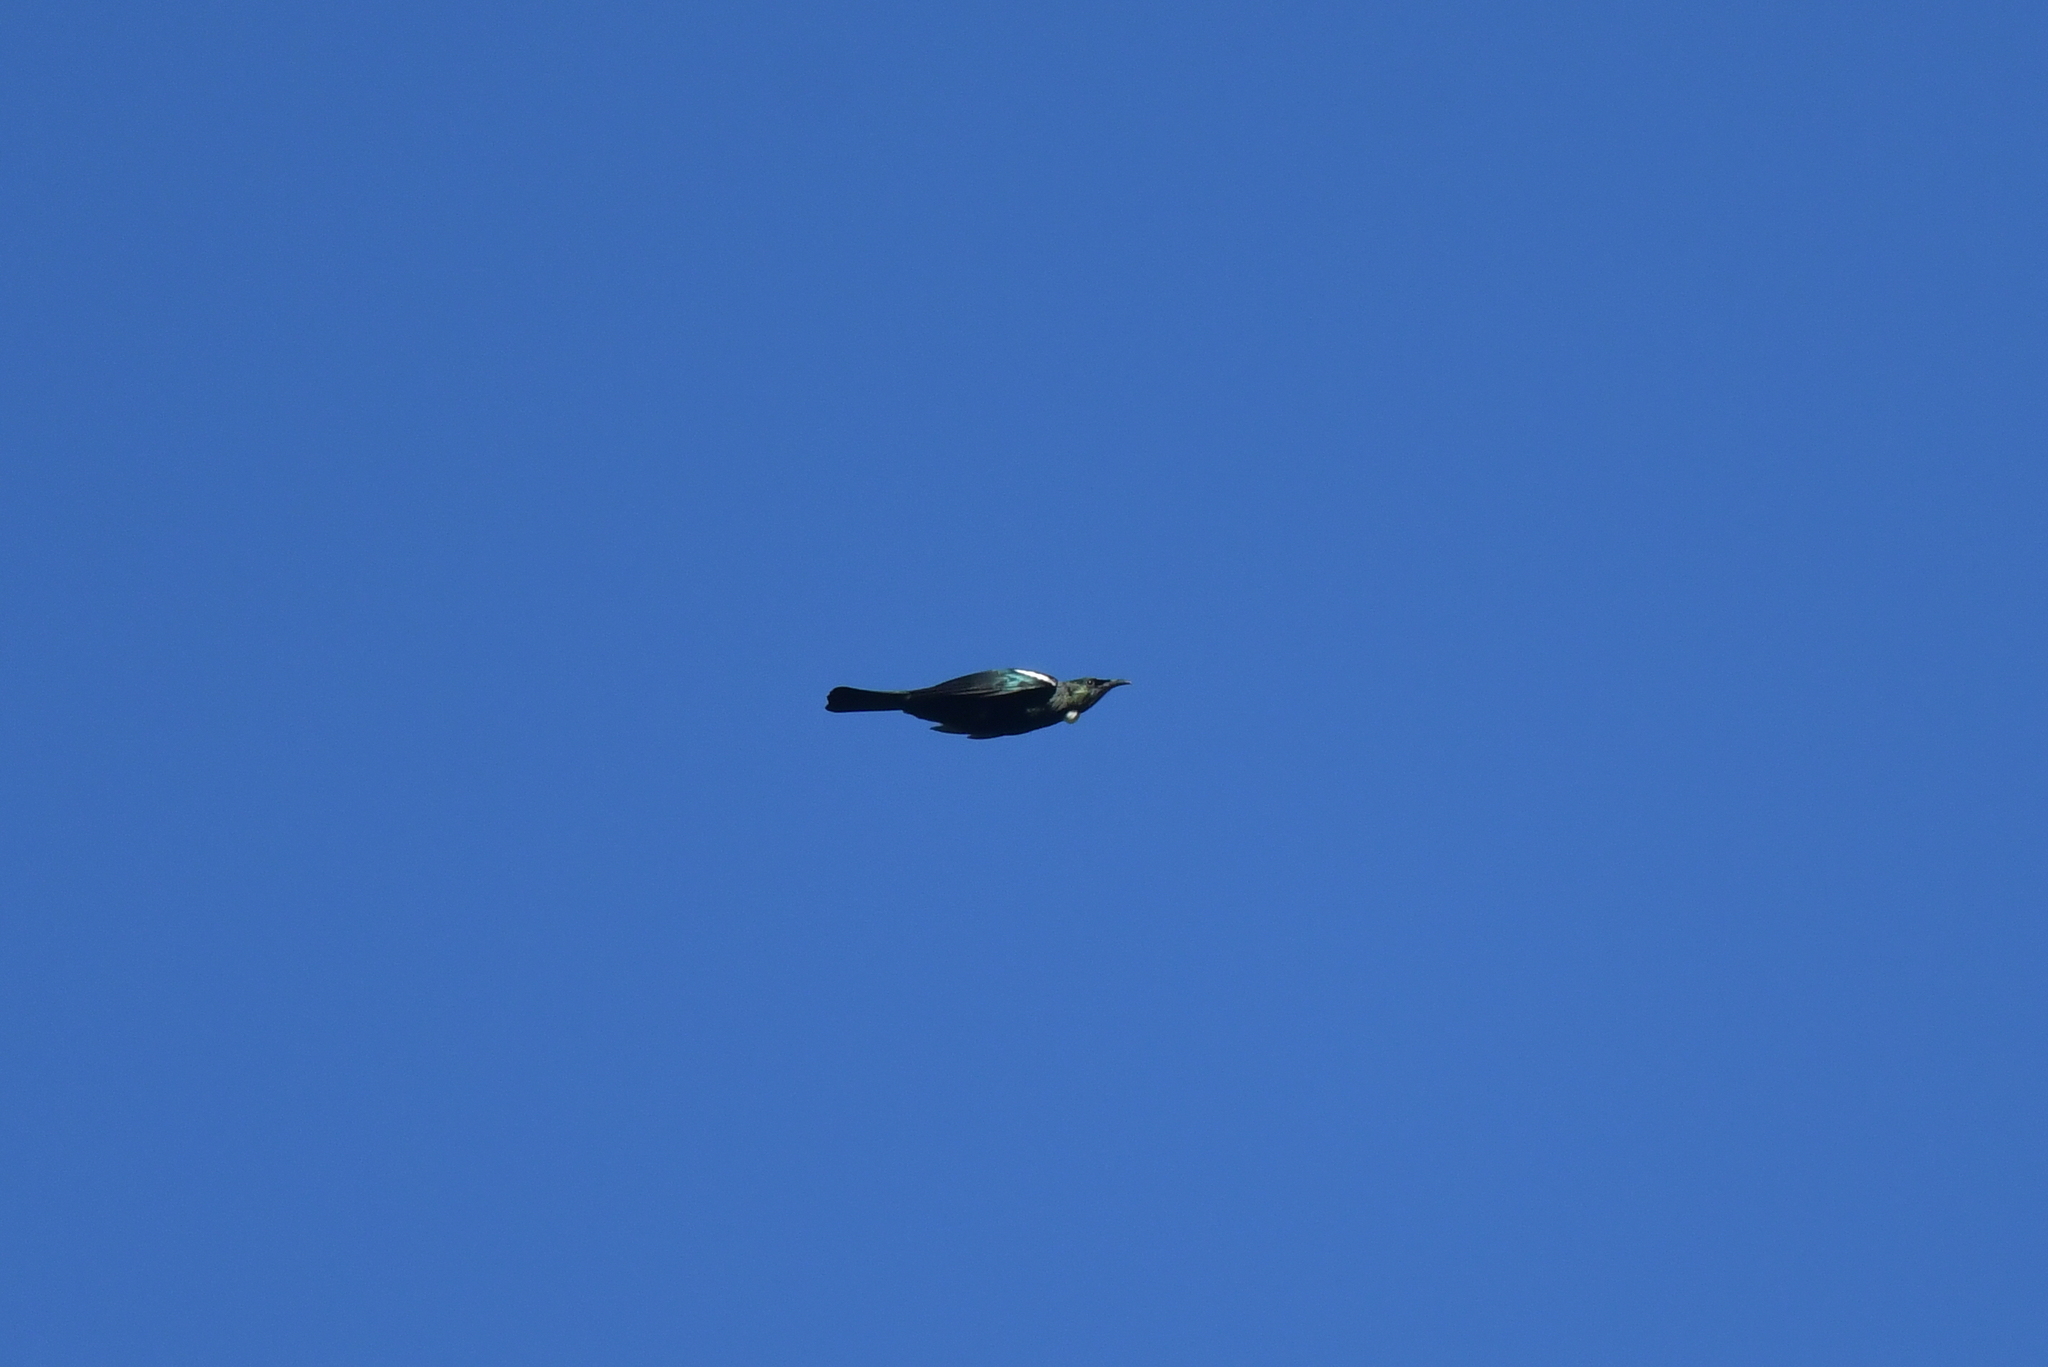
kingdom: Animalia
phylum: Chordata
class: Aves
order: Passeriformes
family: Meliphagidae
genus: Prosthemadera
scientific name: Prosthemadera novaeseelandiae
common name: Tui
